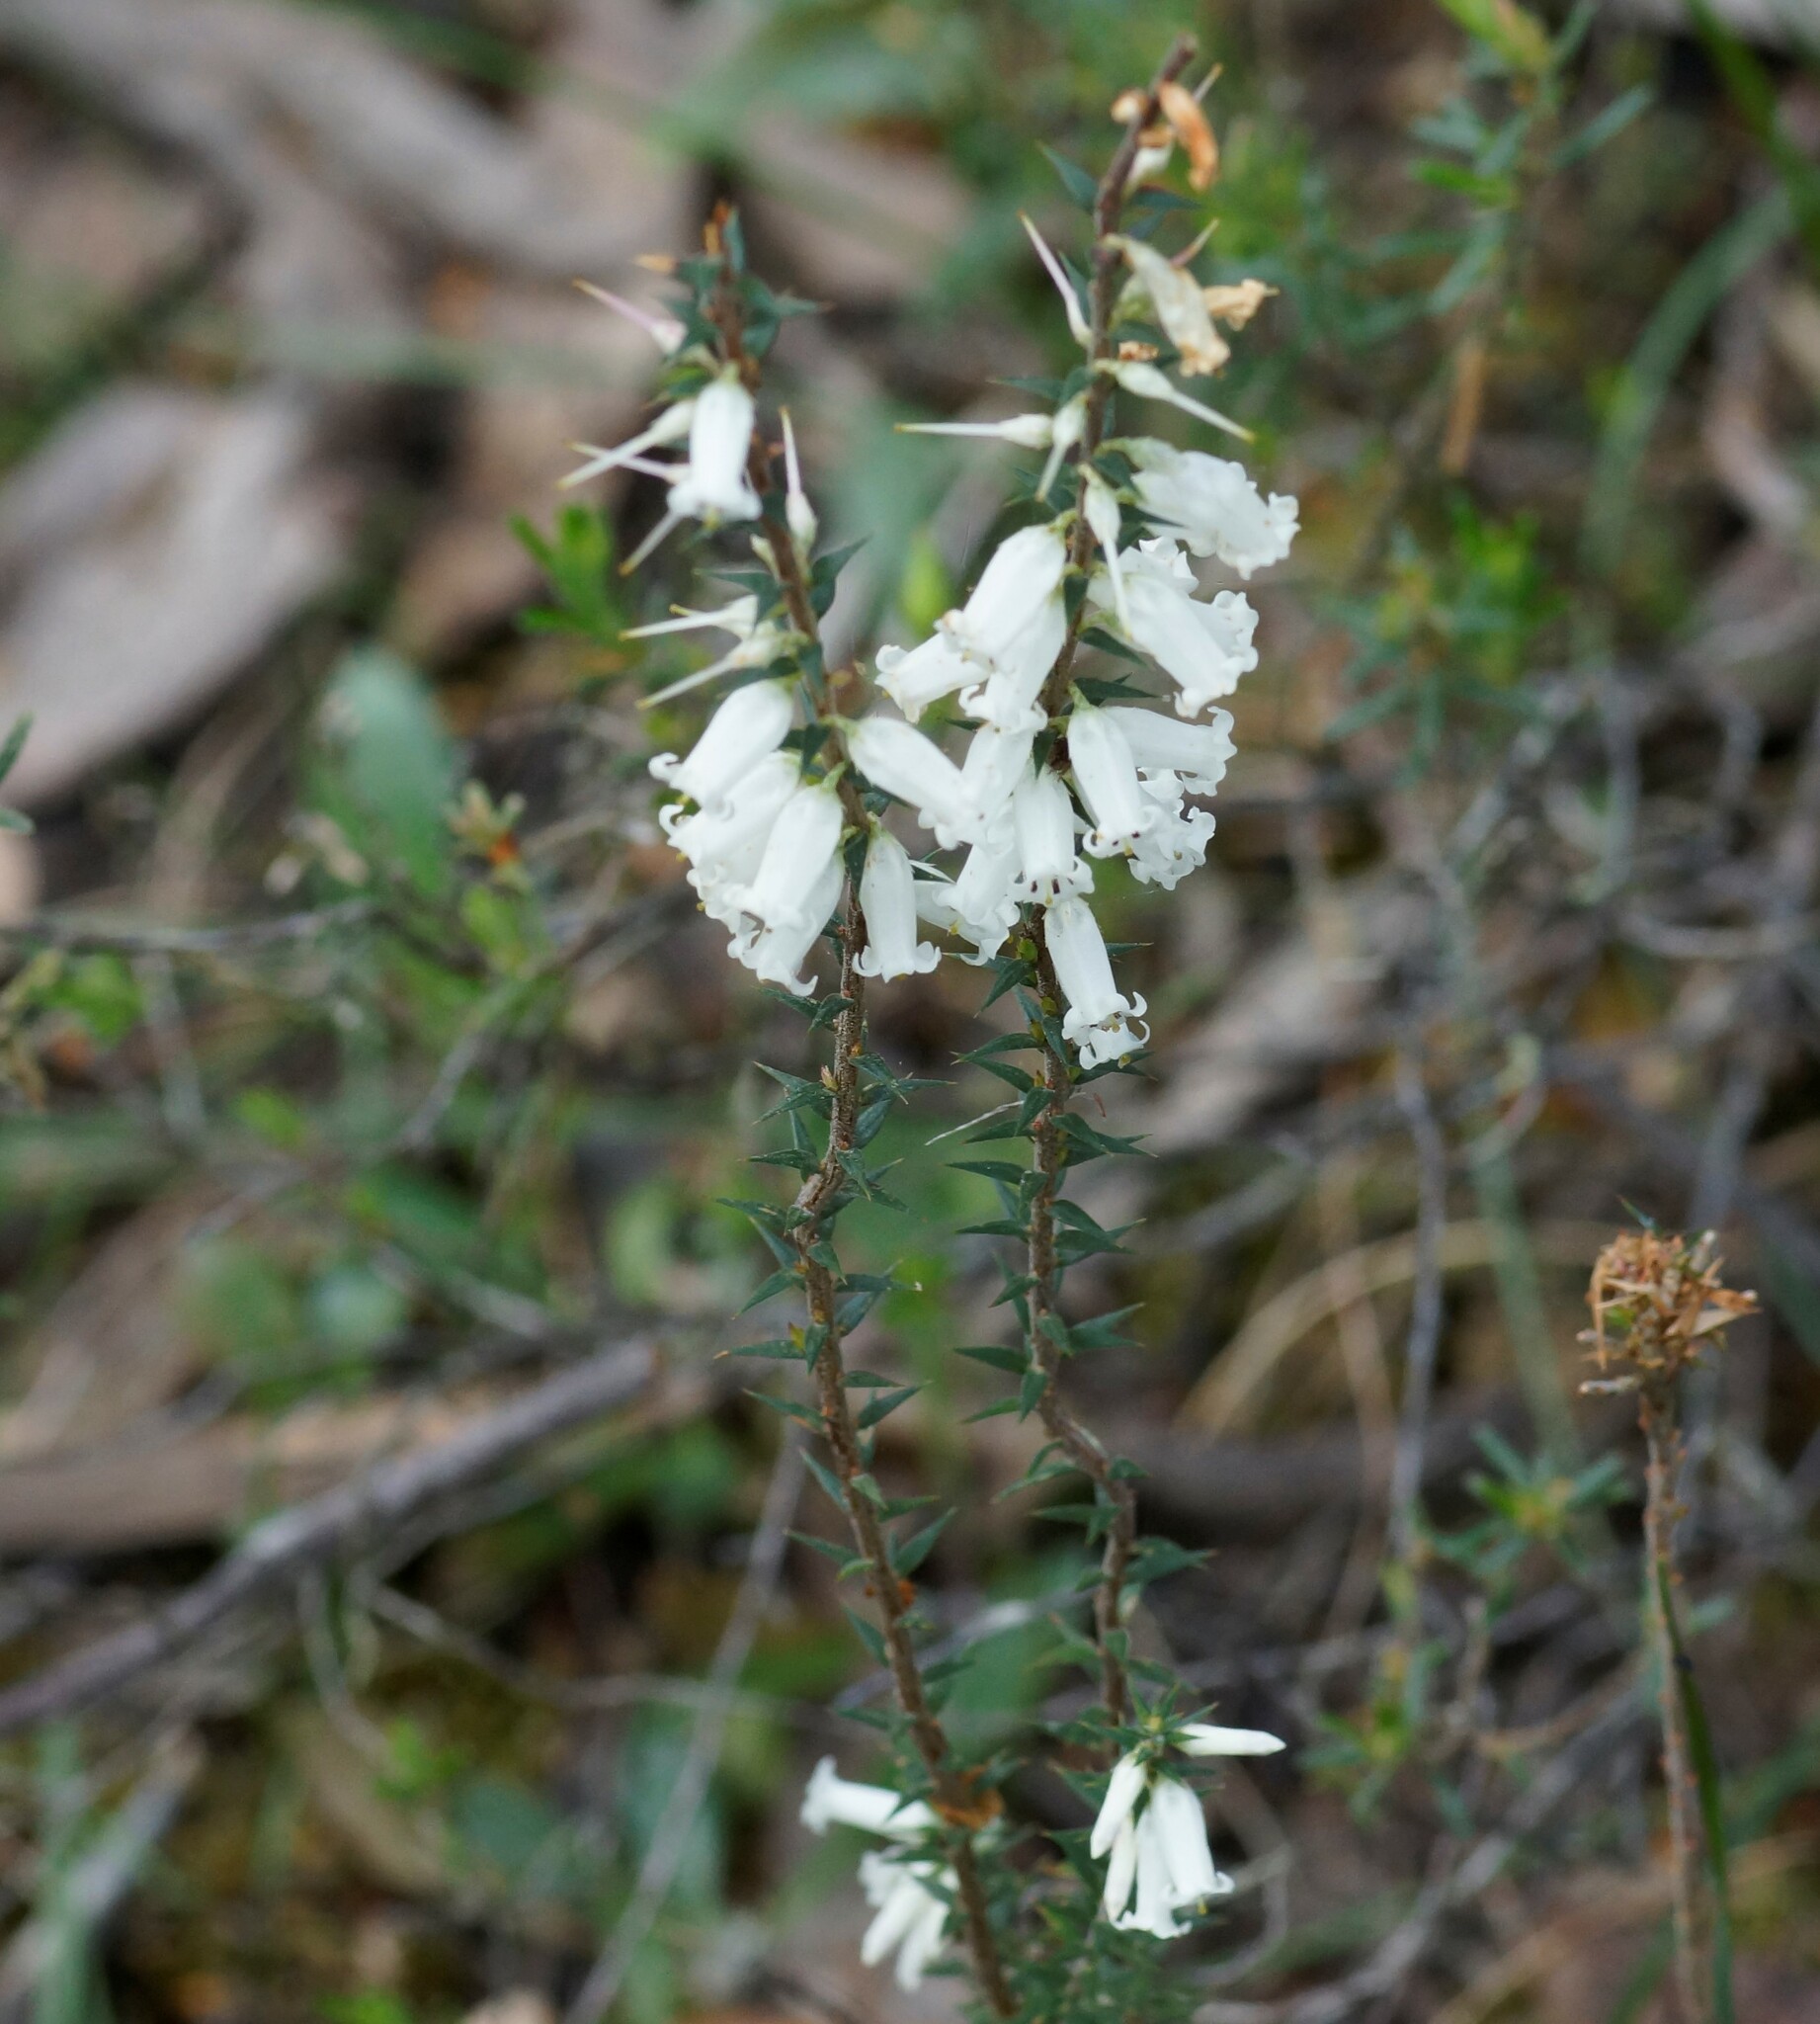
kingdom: Plantae
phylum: Tracheophyta
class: Magnoliopsida
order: Ericales
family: Ericaceae
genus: Epacris
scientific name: Epacris impressa
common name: Common-heath
